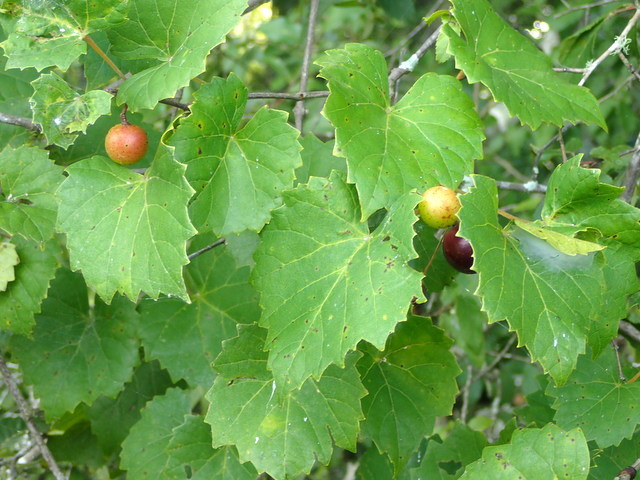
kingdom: Plantae
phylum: Tracheophyta
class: Magnoliopsida
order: Vitales
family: Vitaceae
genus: Vitis
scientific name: Vitis rotundifolia
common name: Muscadine grape
